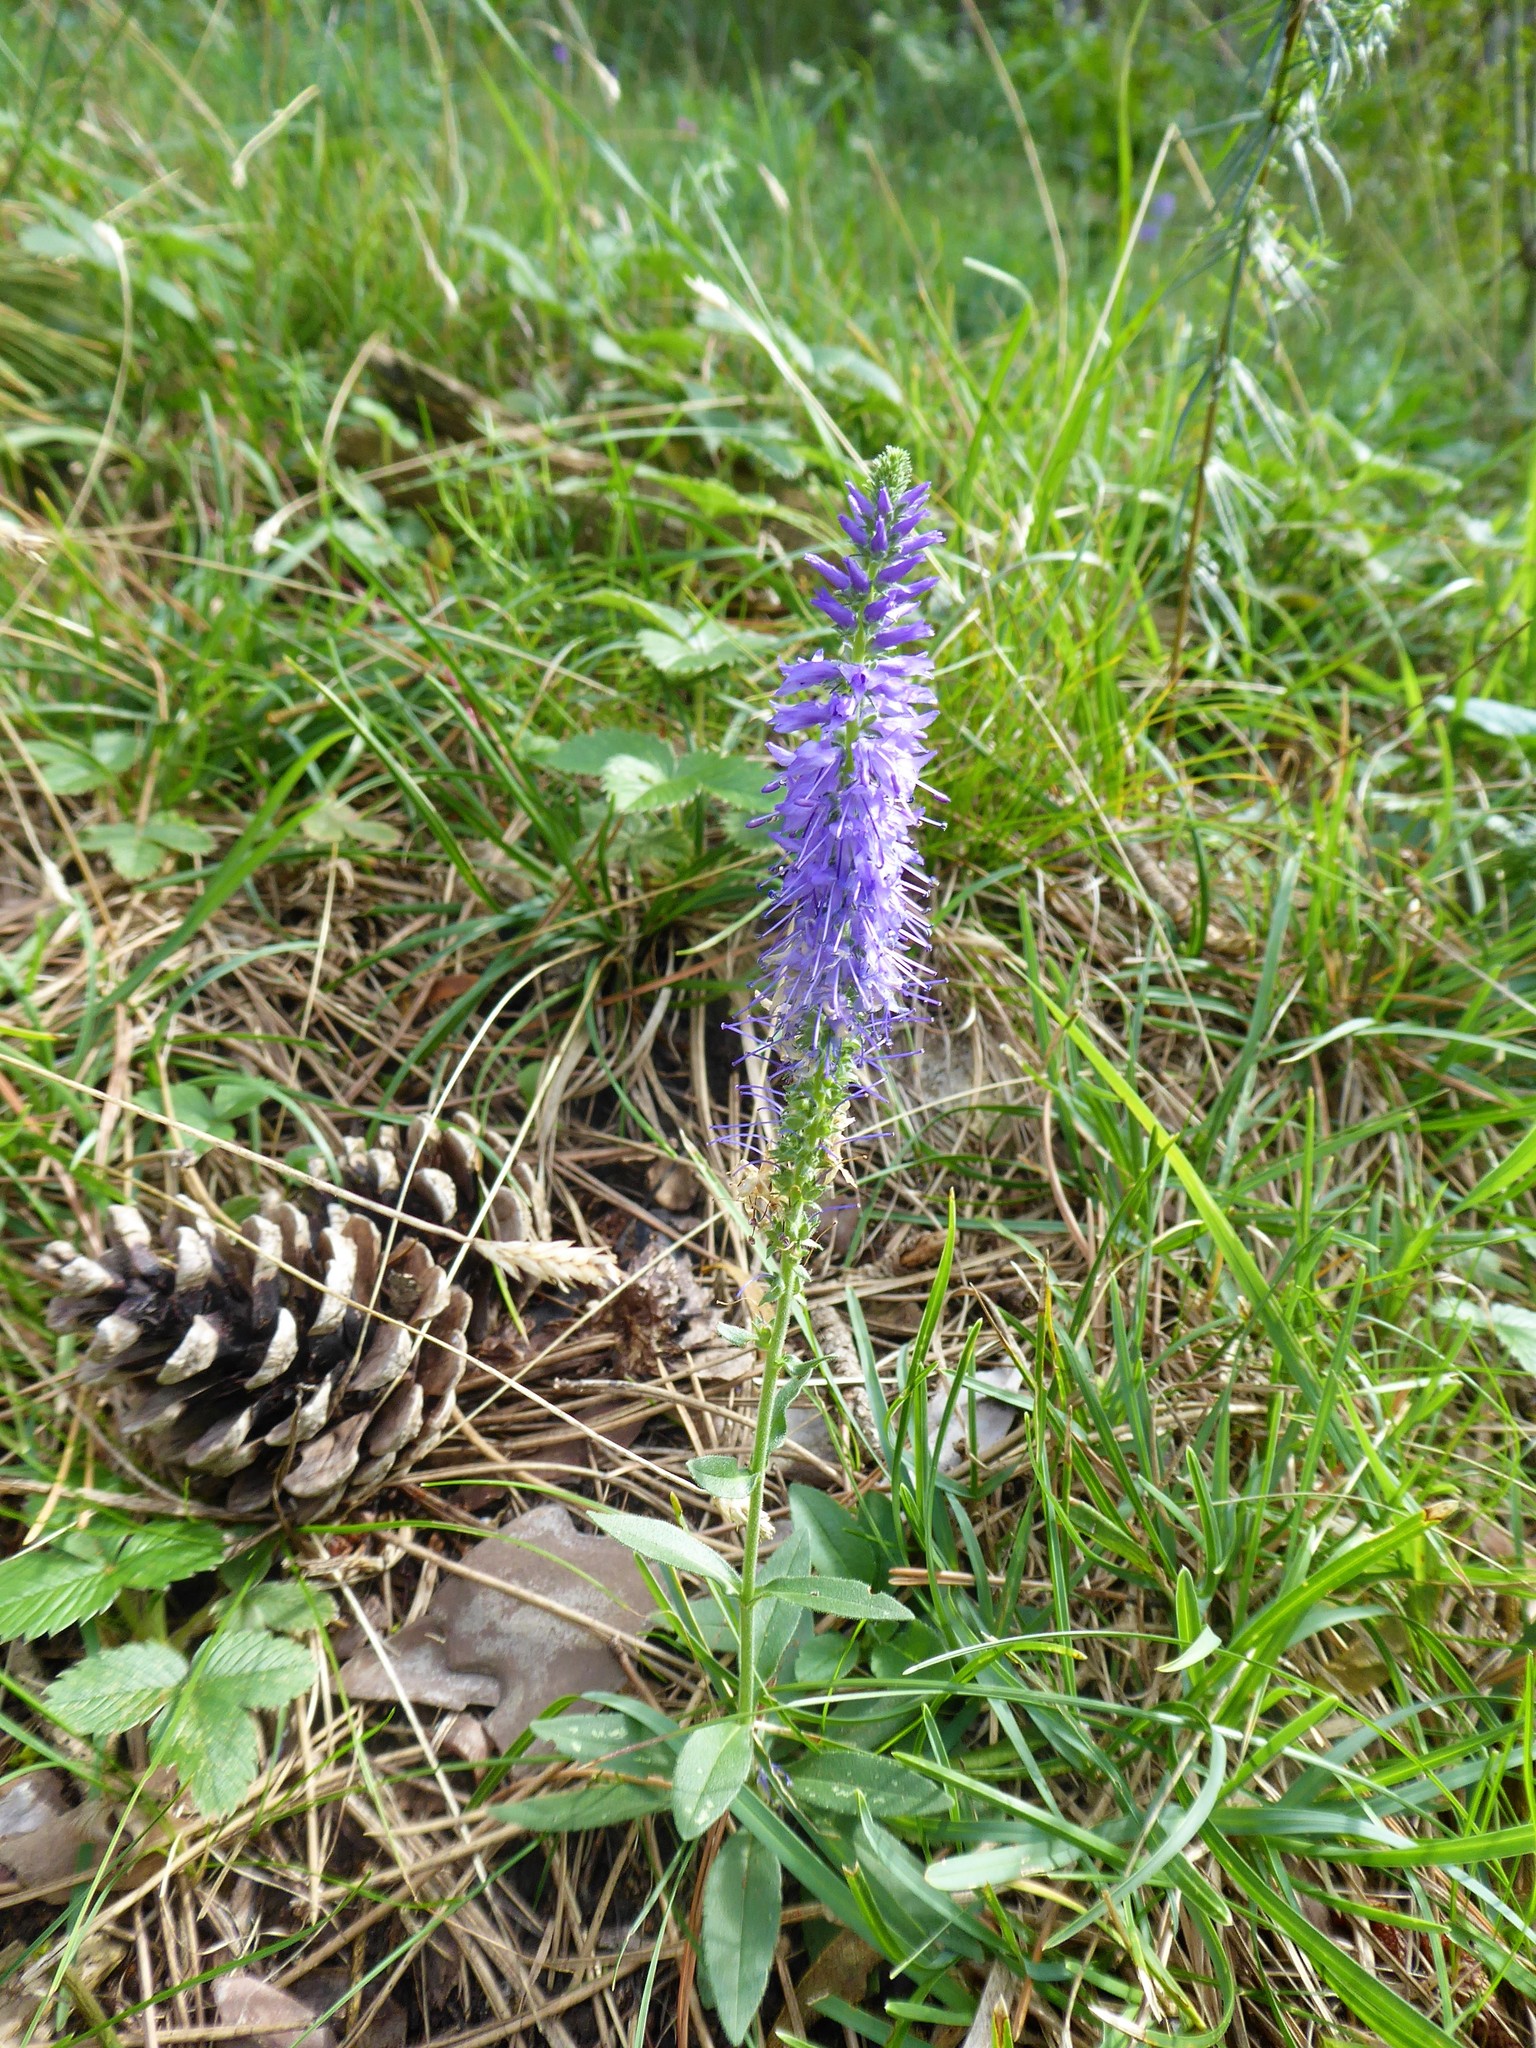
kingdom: Plantae
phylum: Tracheophyta
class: Magnoliopsida
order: Lamiales
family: Plantaginaceae
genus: Veronica
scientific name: Veronica spicata
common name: Spiked speedwell
